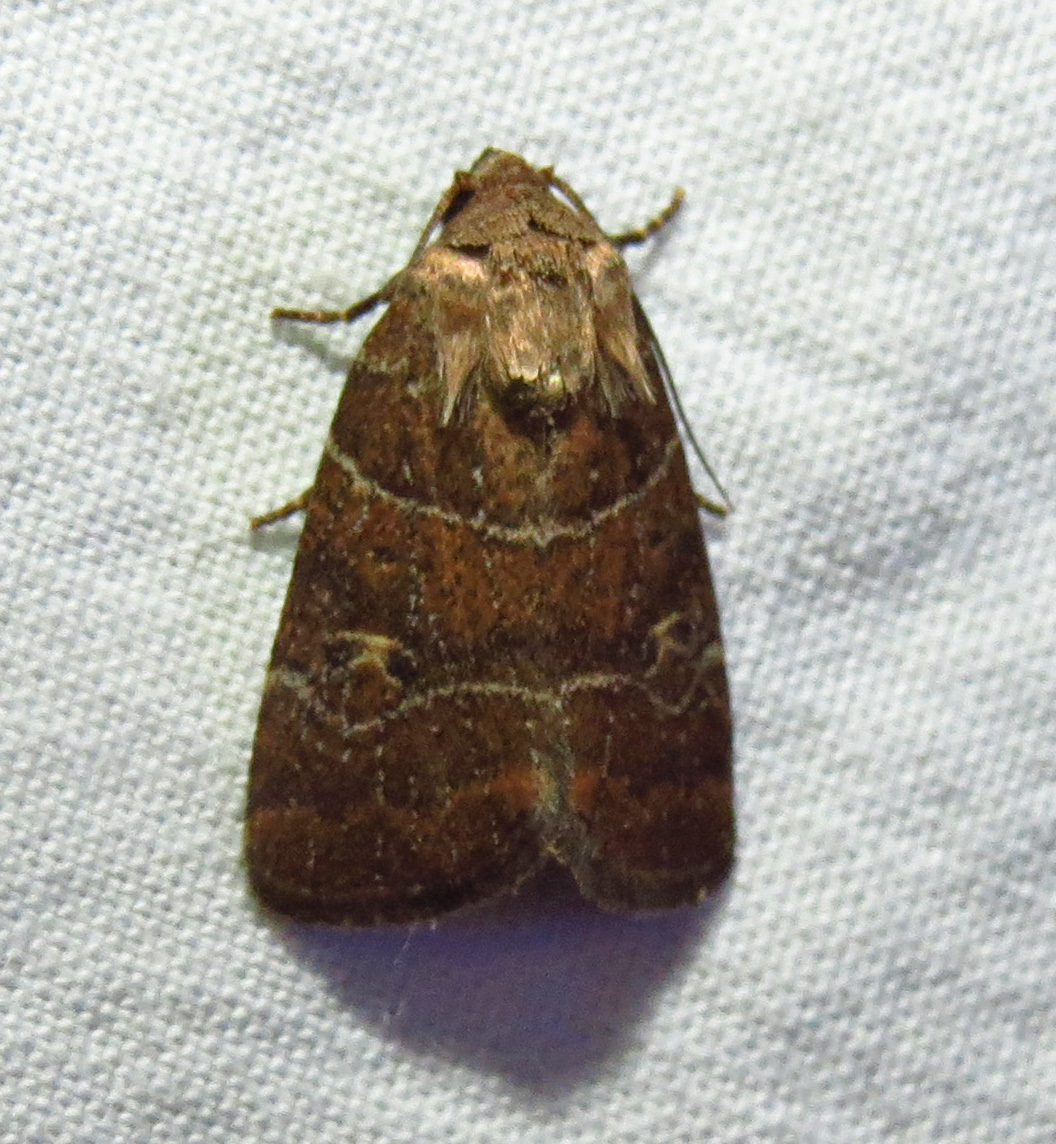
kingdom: Animalia
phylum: Arthropoda
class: Insecta
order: Lepidoptera
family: Noctuidae
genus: Elaphria
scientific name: Elaphria grata
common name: Grateful midget moth
